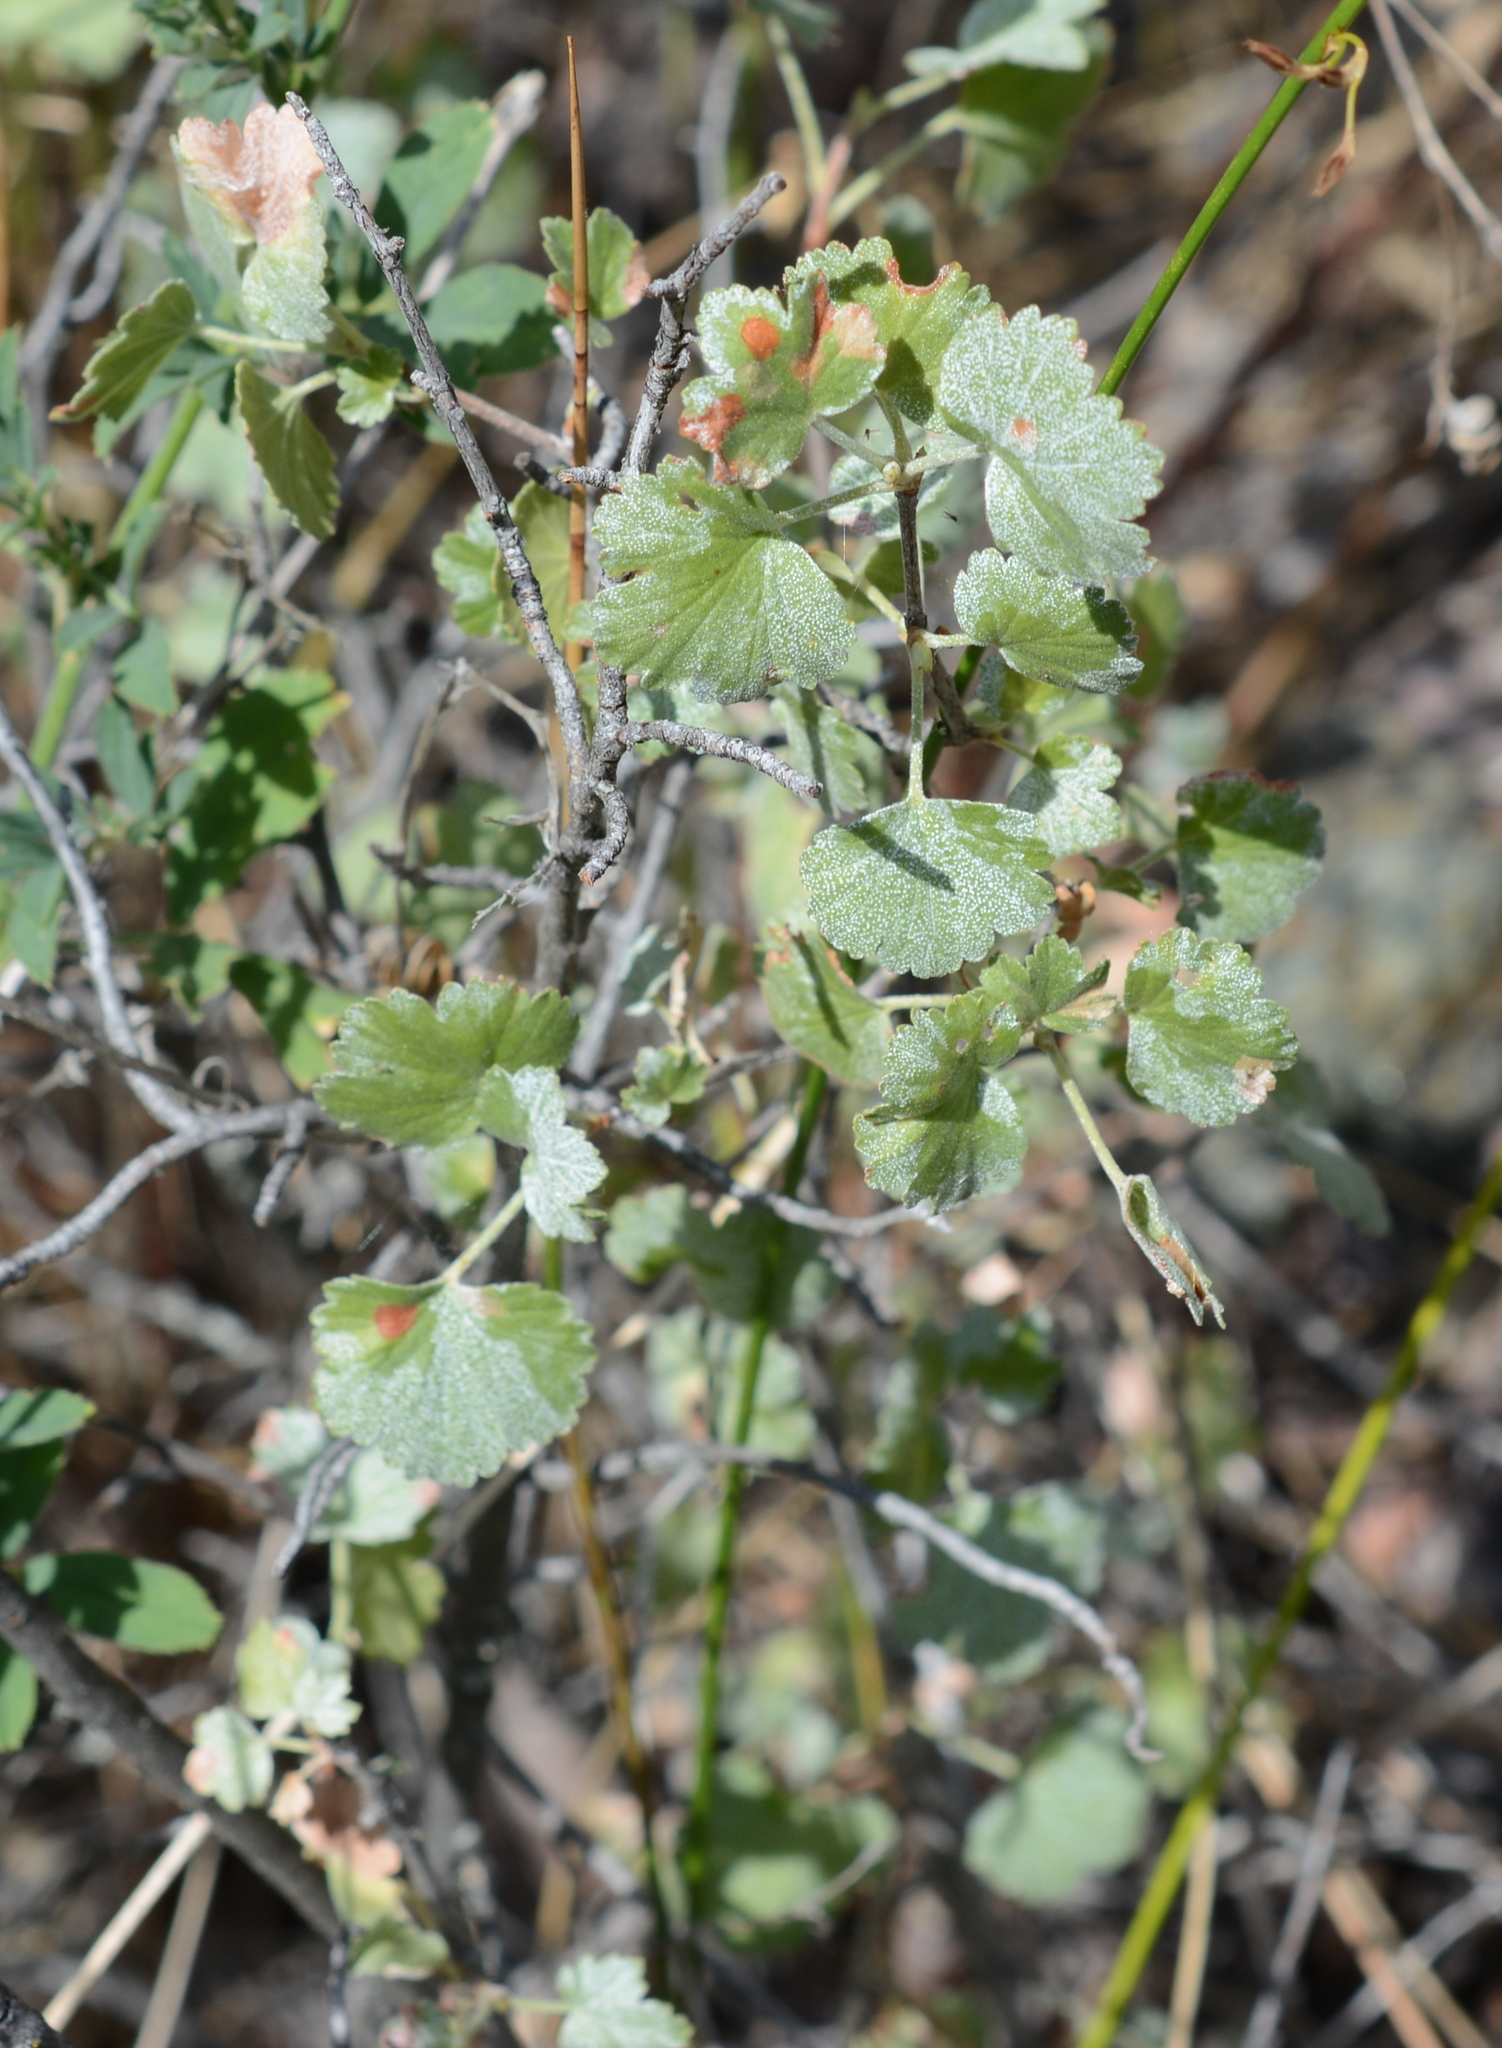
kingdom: Plantae
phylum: Tracheophyta
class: Magnoliopsida
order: Saxifragales
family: Grossulariaceae
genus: Ribes
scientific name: Ribes cereum
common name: Wax currant
